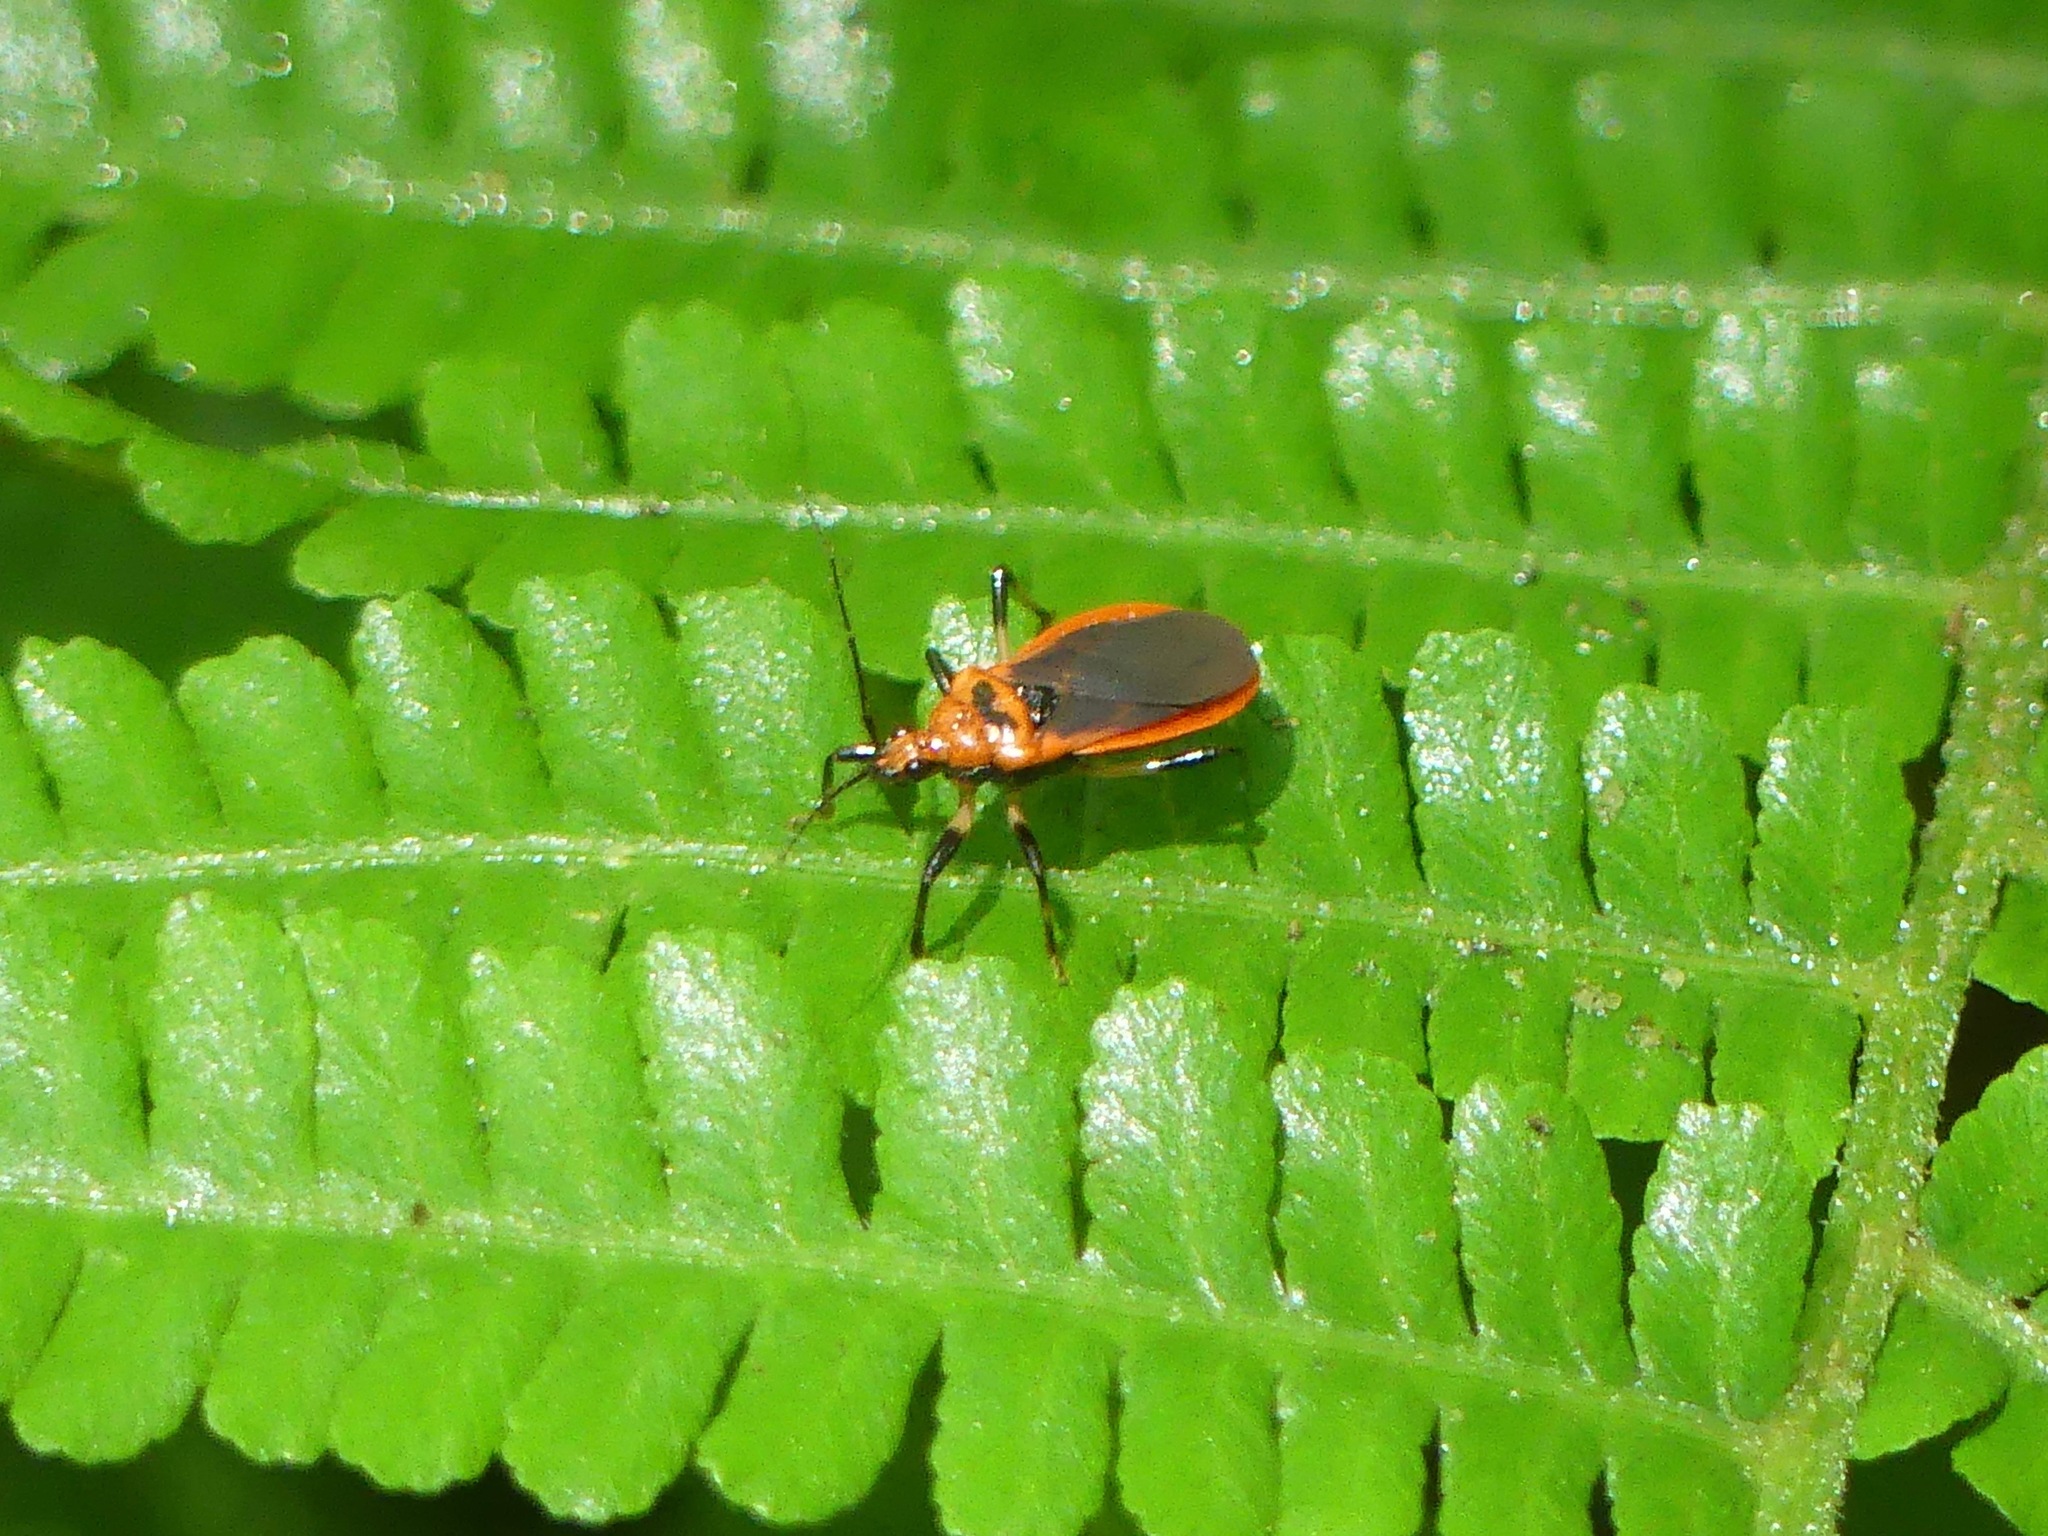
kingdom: Animalia
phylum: Arthropoda
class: Insecta
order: Hemiptera
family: Reduviidae
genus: Rhiginia
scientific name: Rhiginia cruciata
